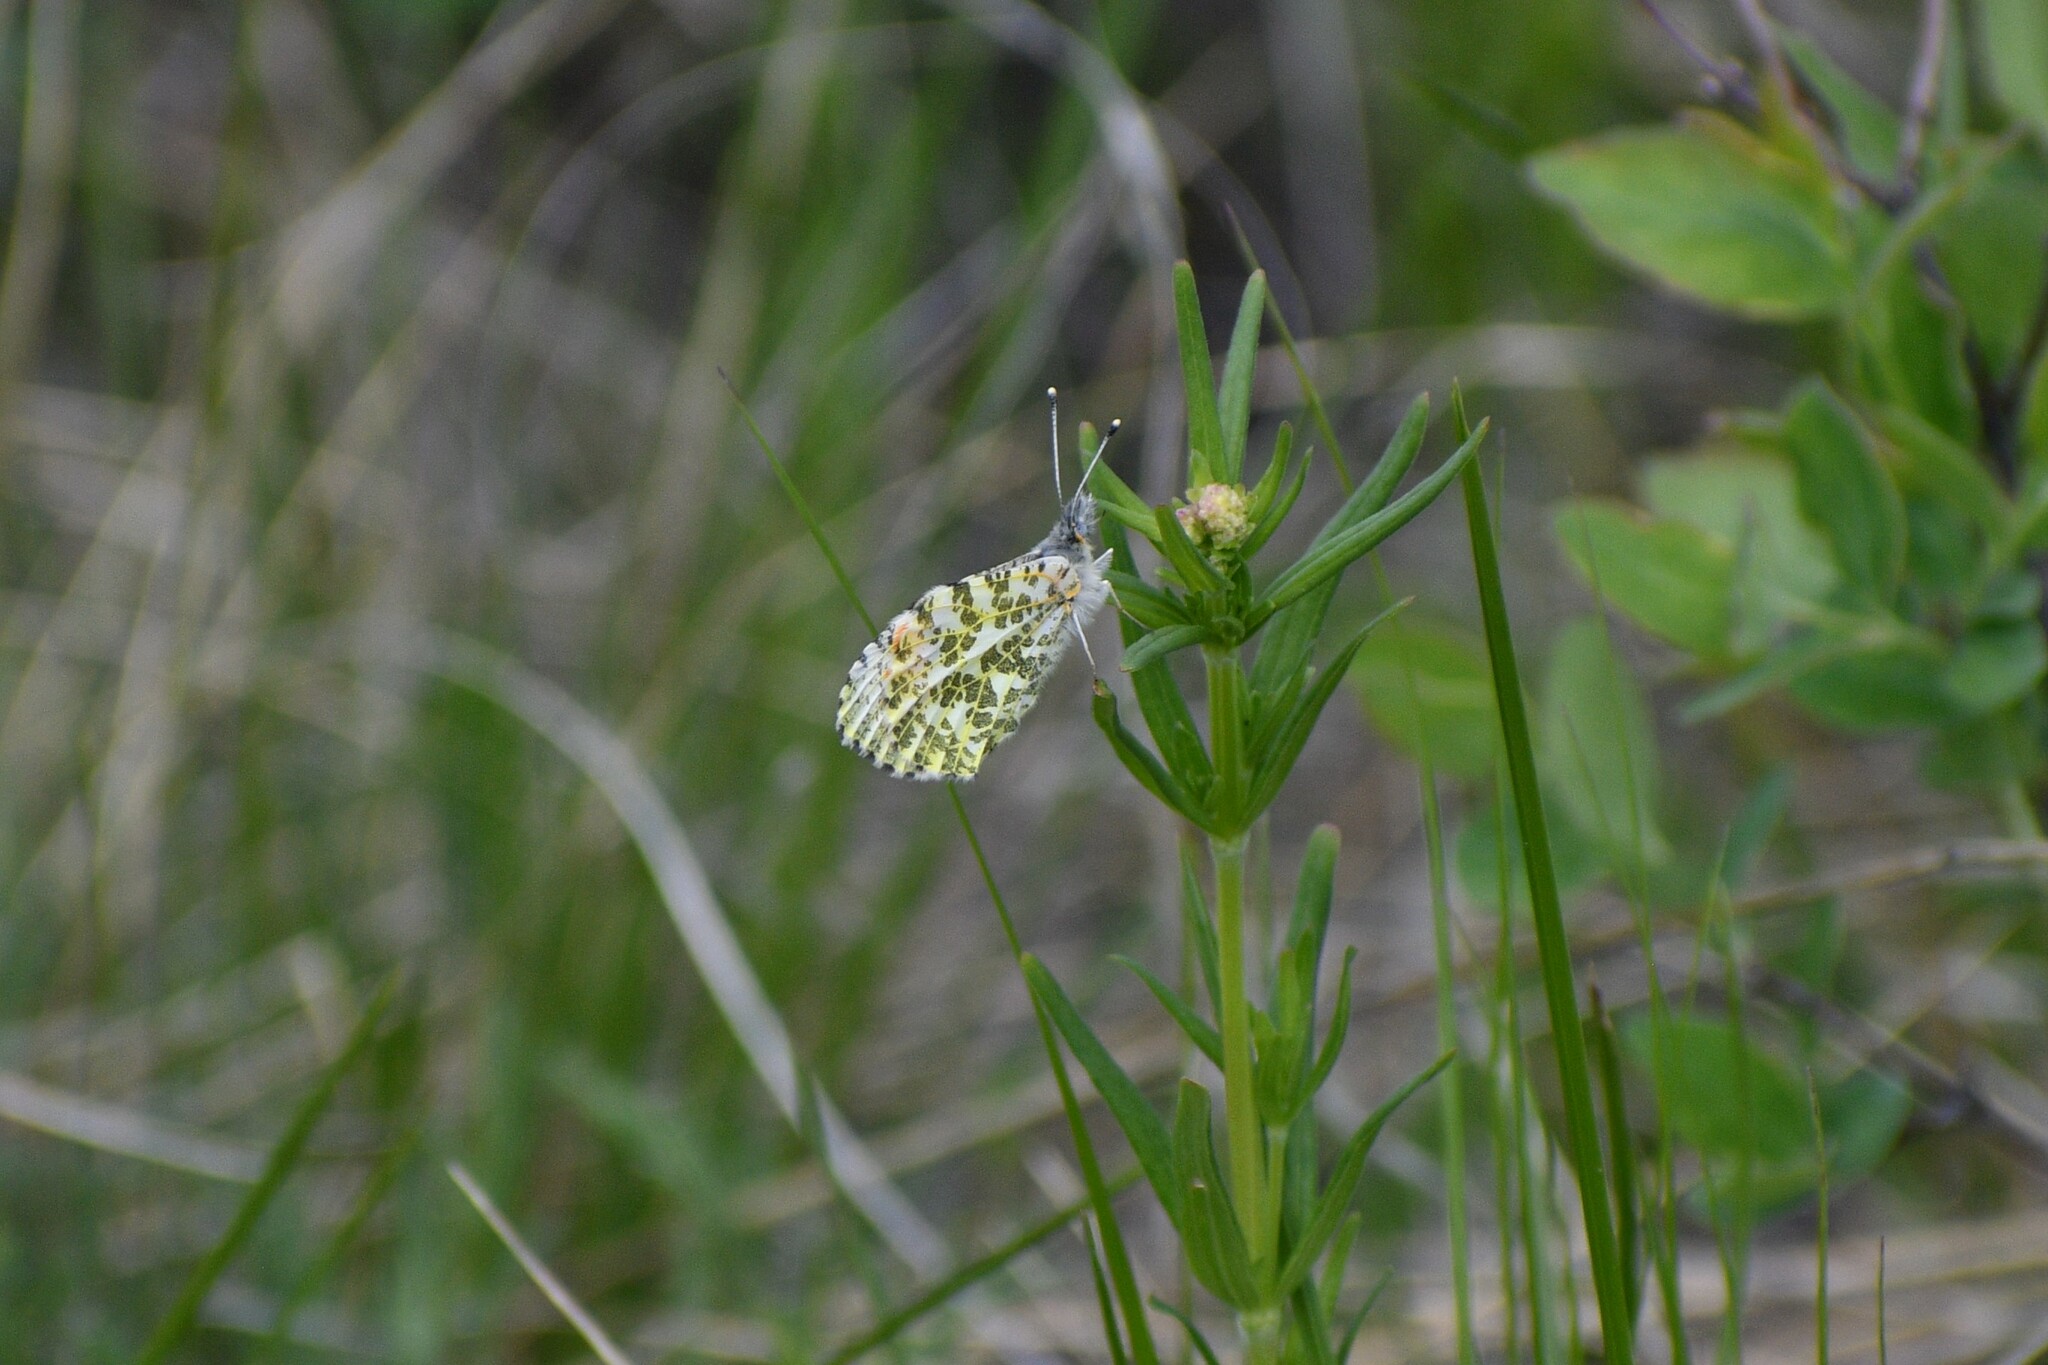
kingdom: Animalia
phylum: Arthropoda
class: Insecta
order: Lepidoptera
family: Pieridae
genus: Anthocharis
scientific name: Anthocharis julia
